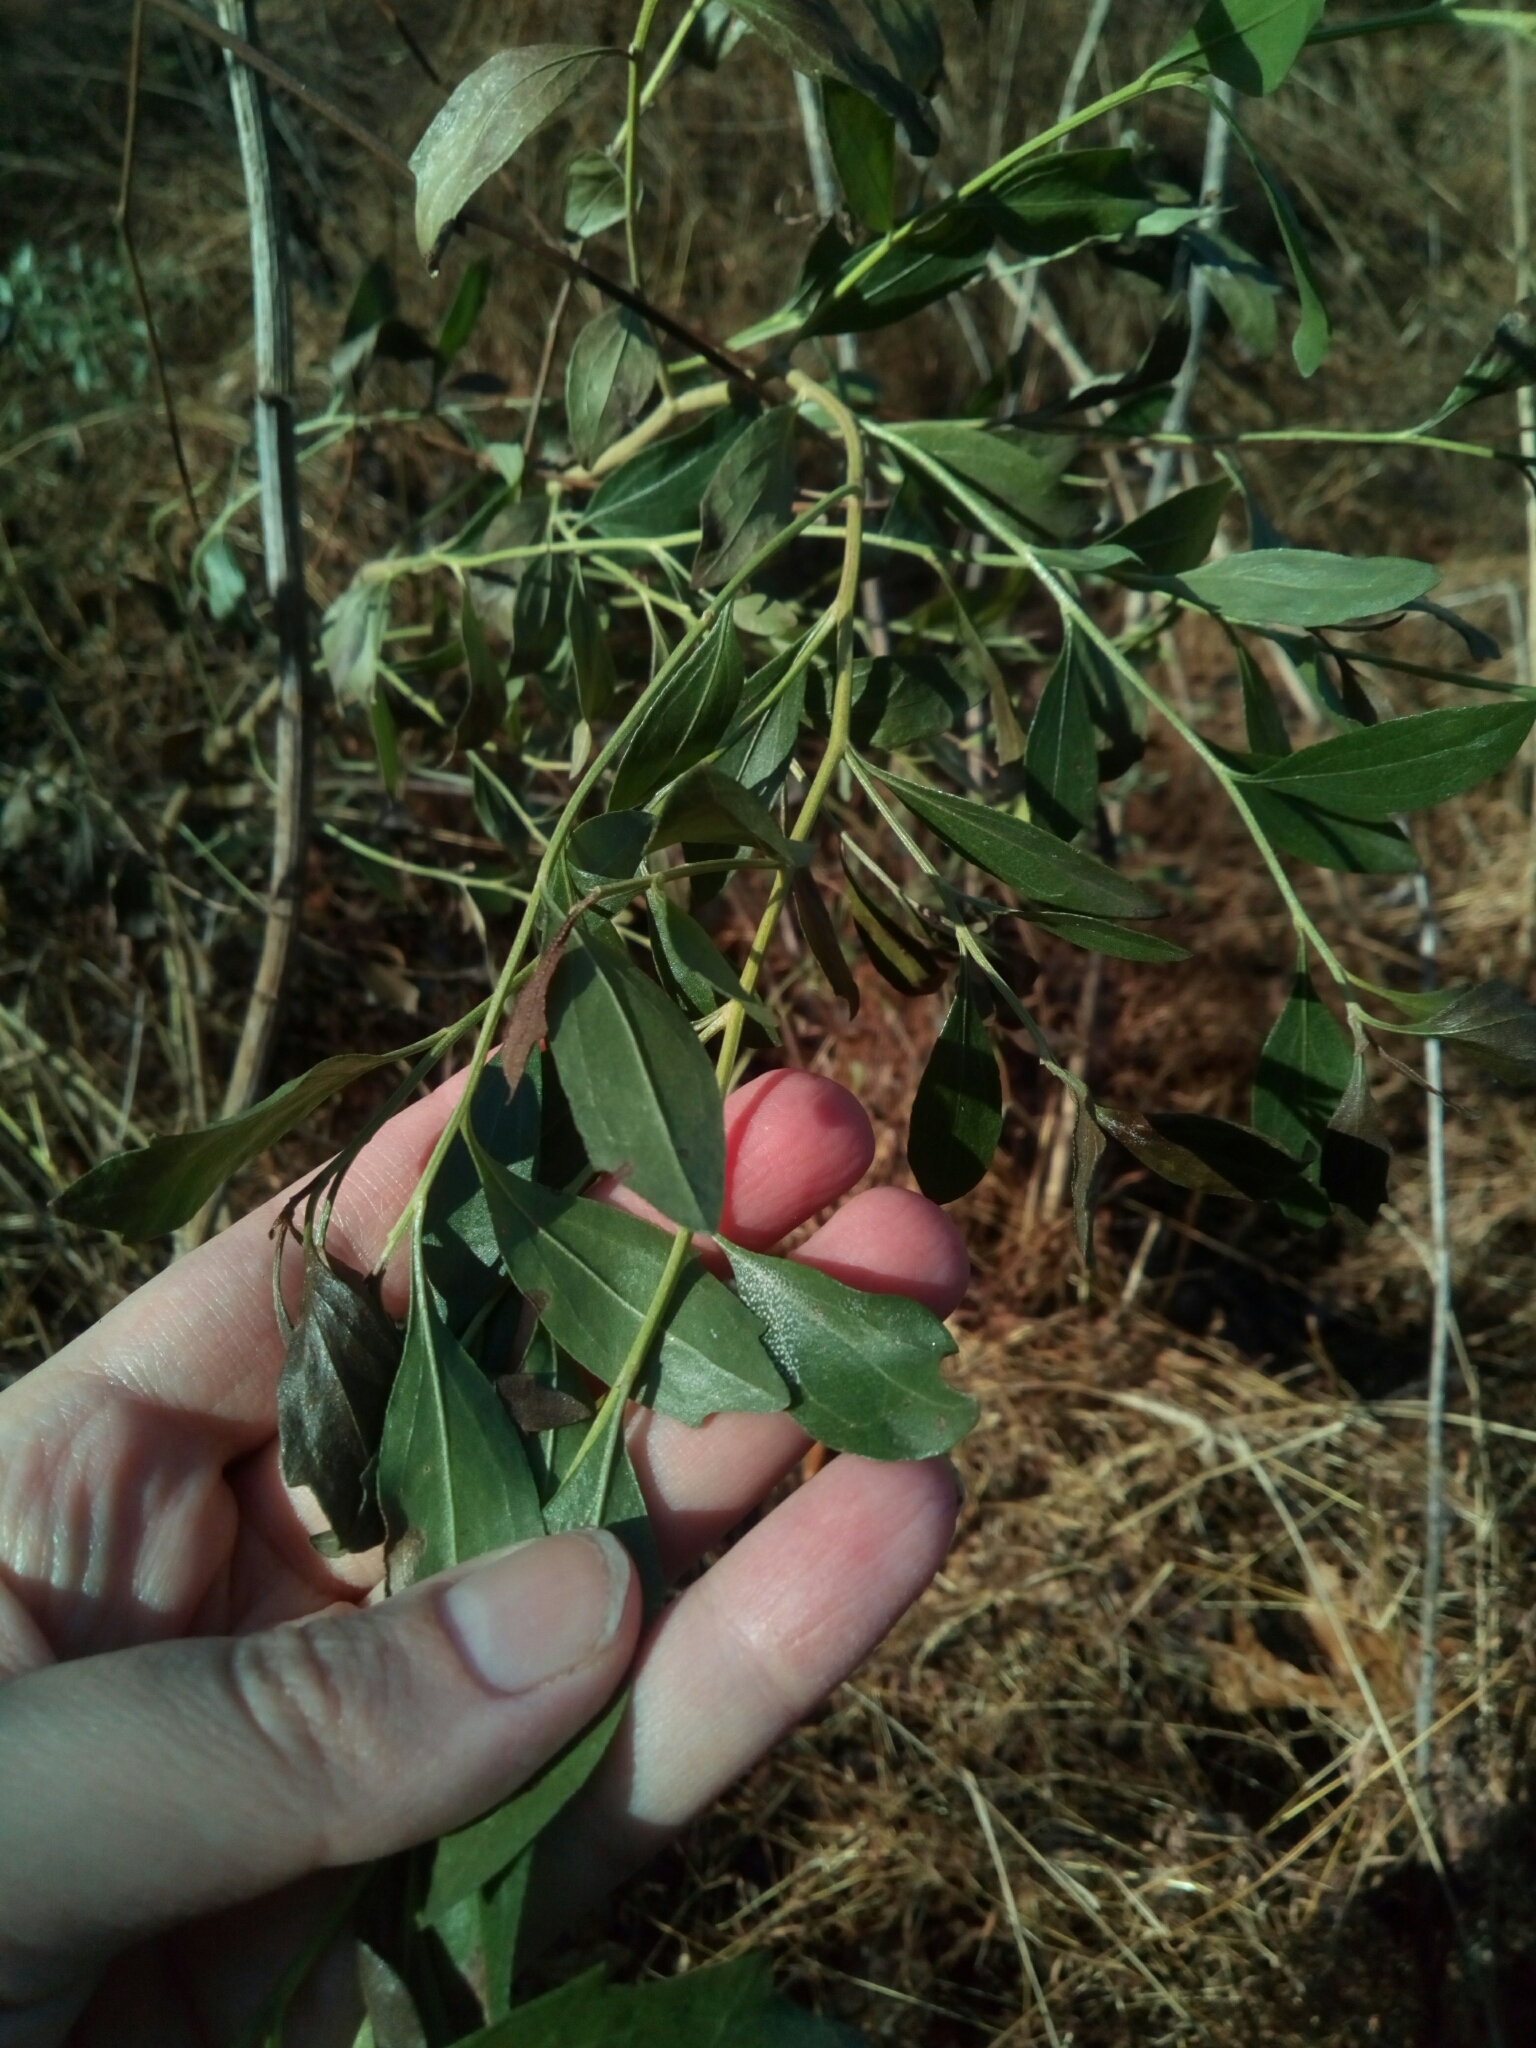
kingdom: Plantae
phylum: Tracheophyta
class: Magnoliopsida
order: Asterales
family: Asteraceae
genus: Baccharis
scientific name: Baccharis halimifolia
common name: Eastern baccharis
